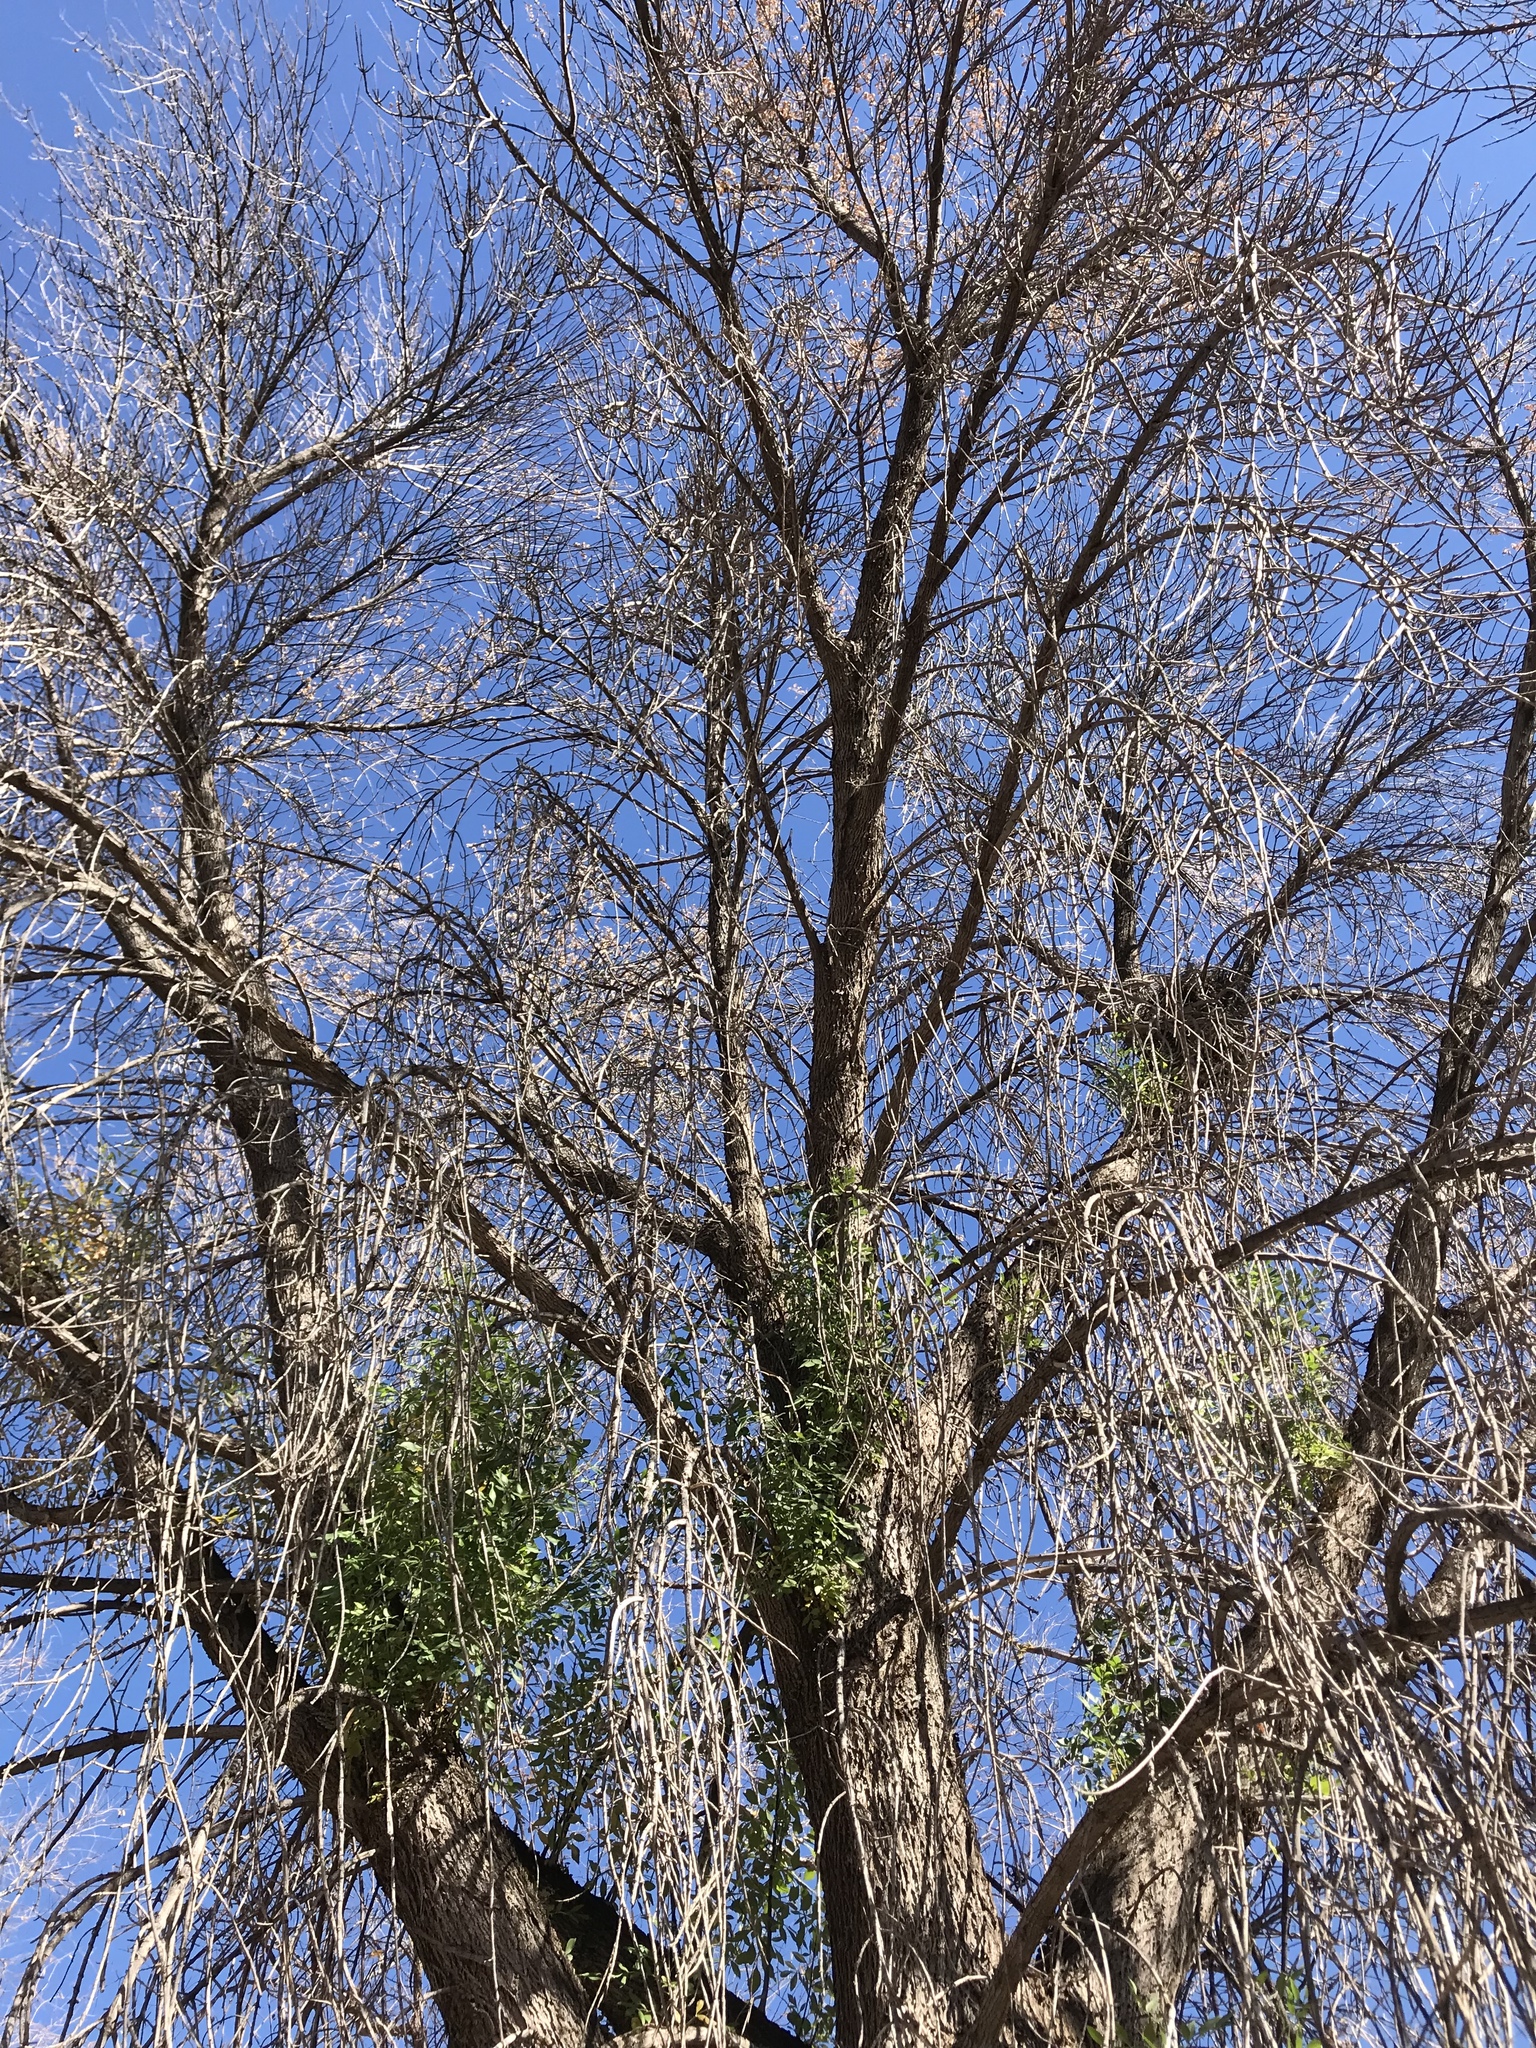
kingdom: Plantae
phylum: Tracheophyta
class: Magnoliopsida
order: Lamiales
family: Oleaceae
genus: Fraxinus
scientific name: Fraxinus velutina
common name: Arizon ash
